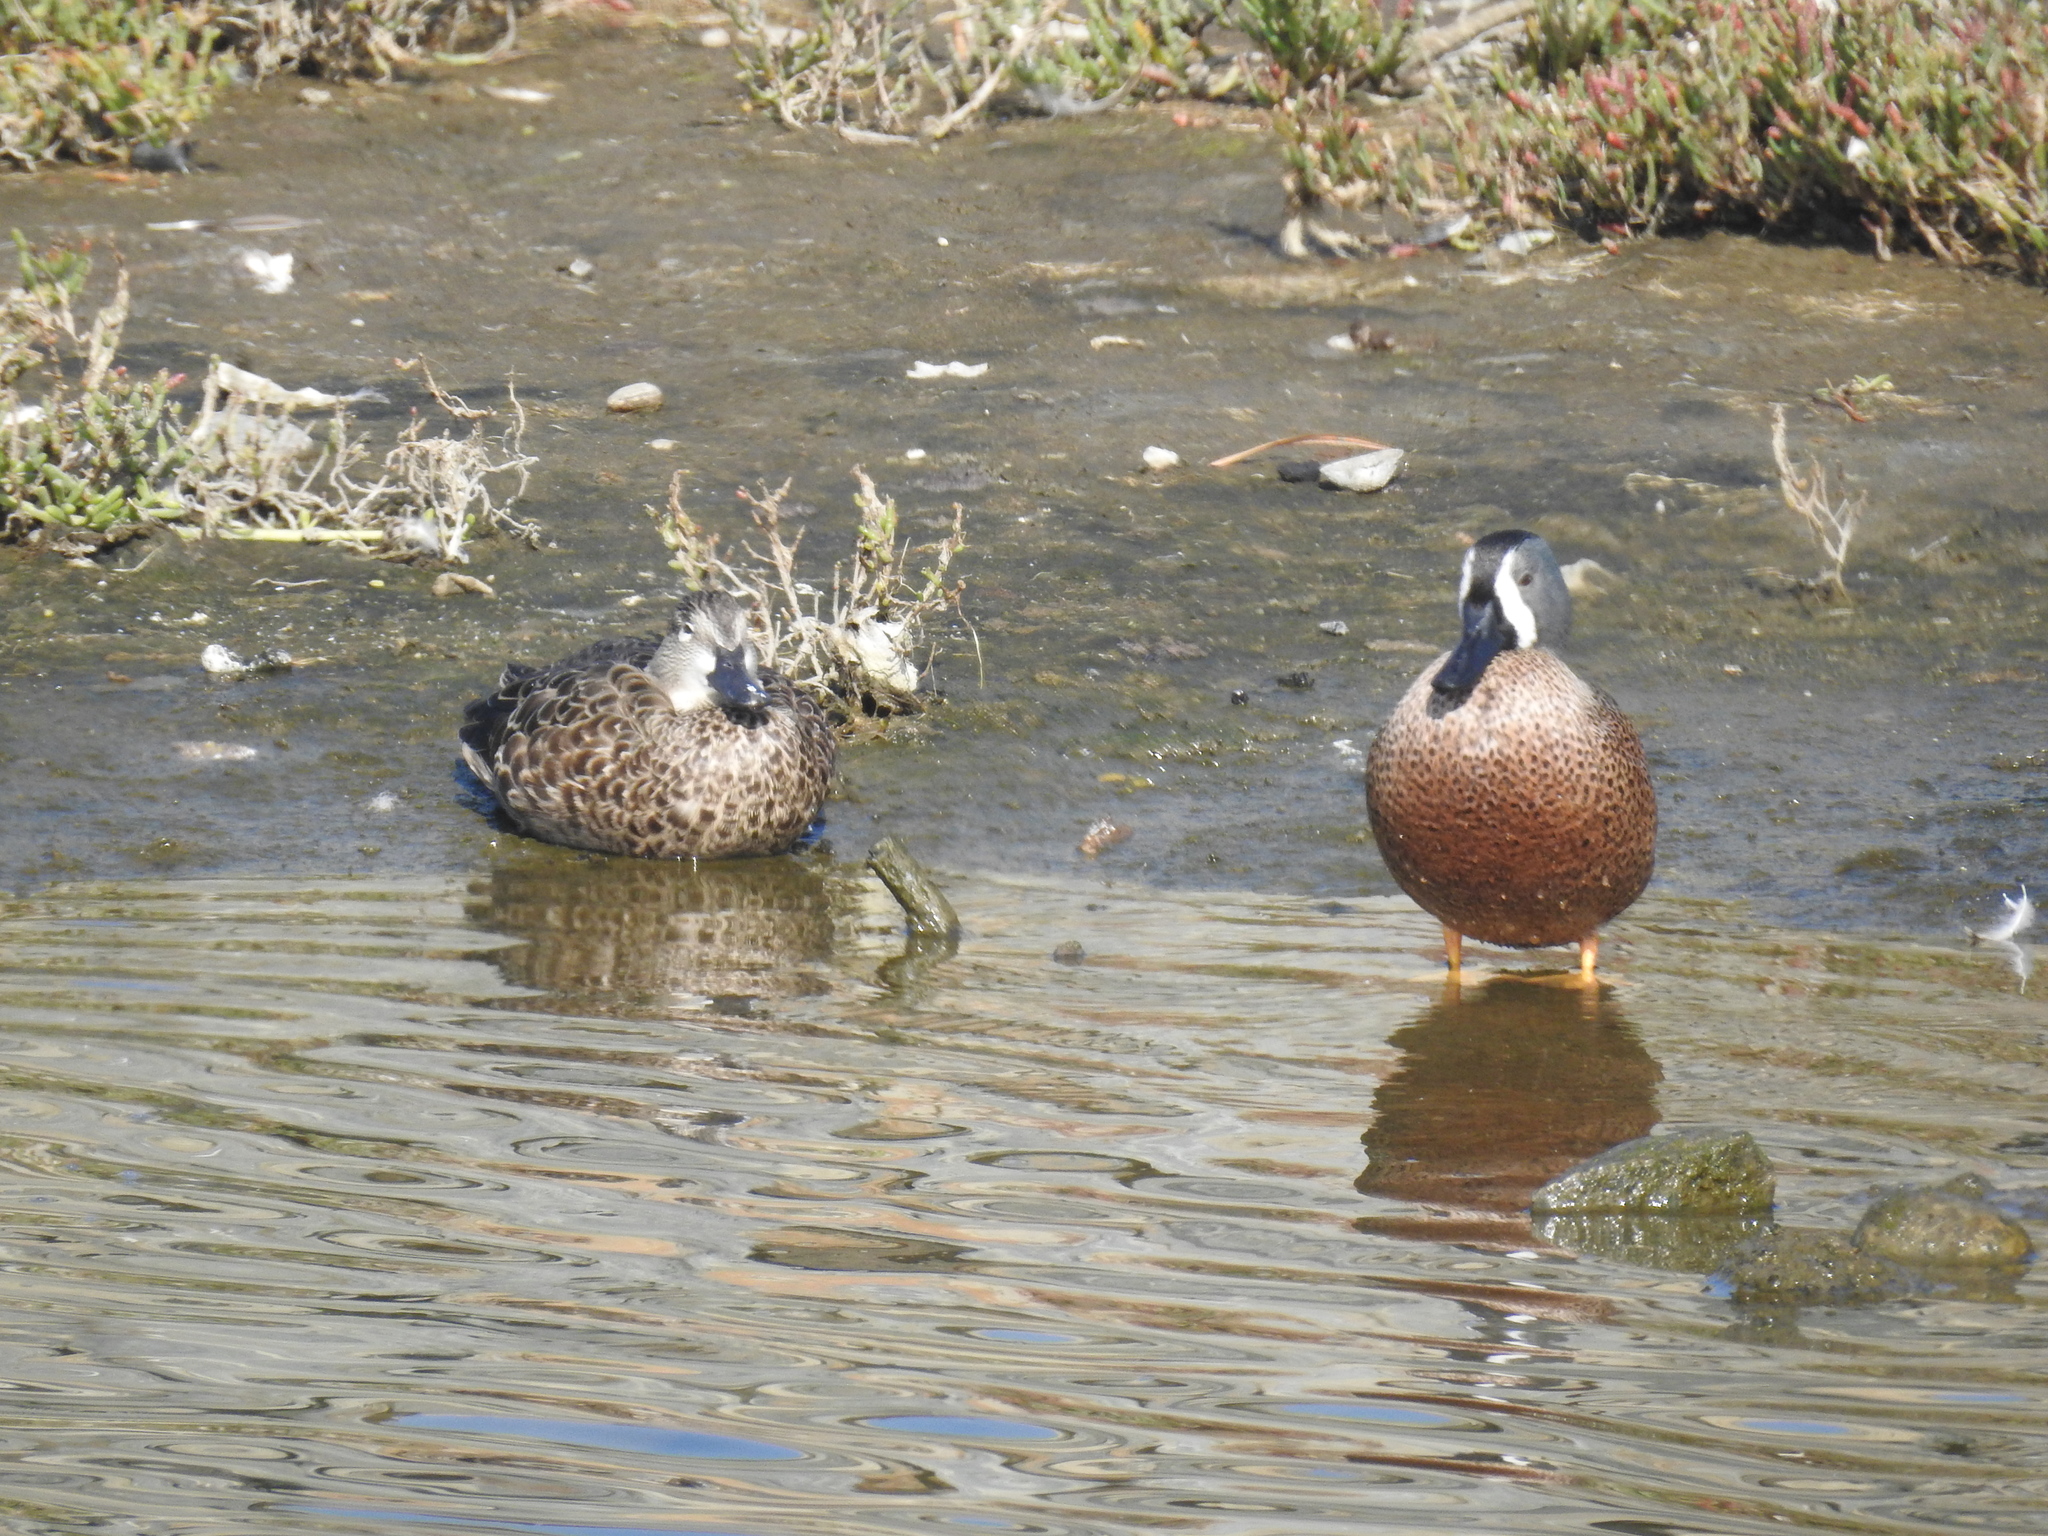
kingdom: Animalia
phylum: Chordata
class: Aves
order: Anseriformes
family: Anatidae
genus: Spatula
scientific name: Spatula discors
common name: Blue-winged teal
